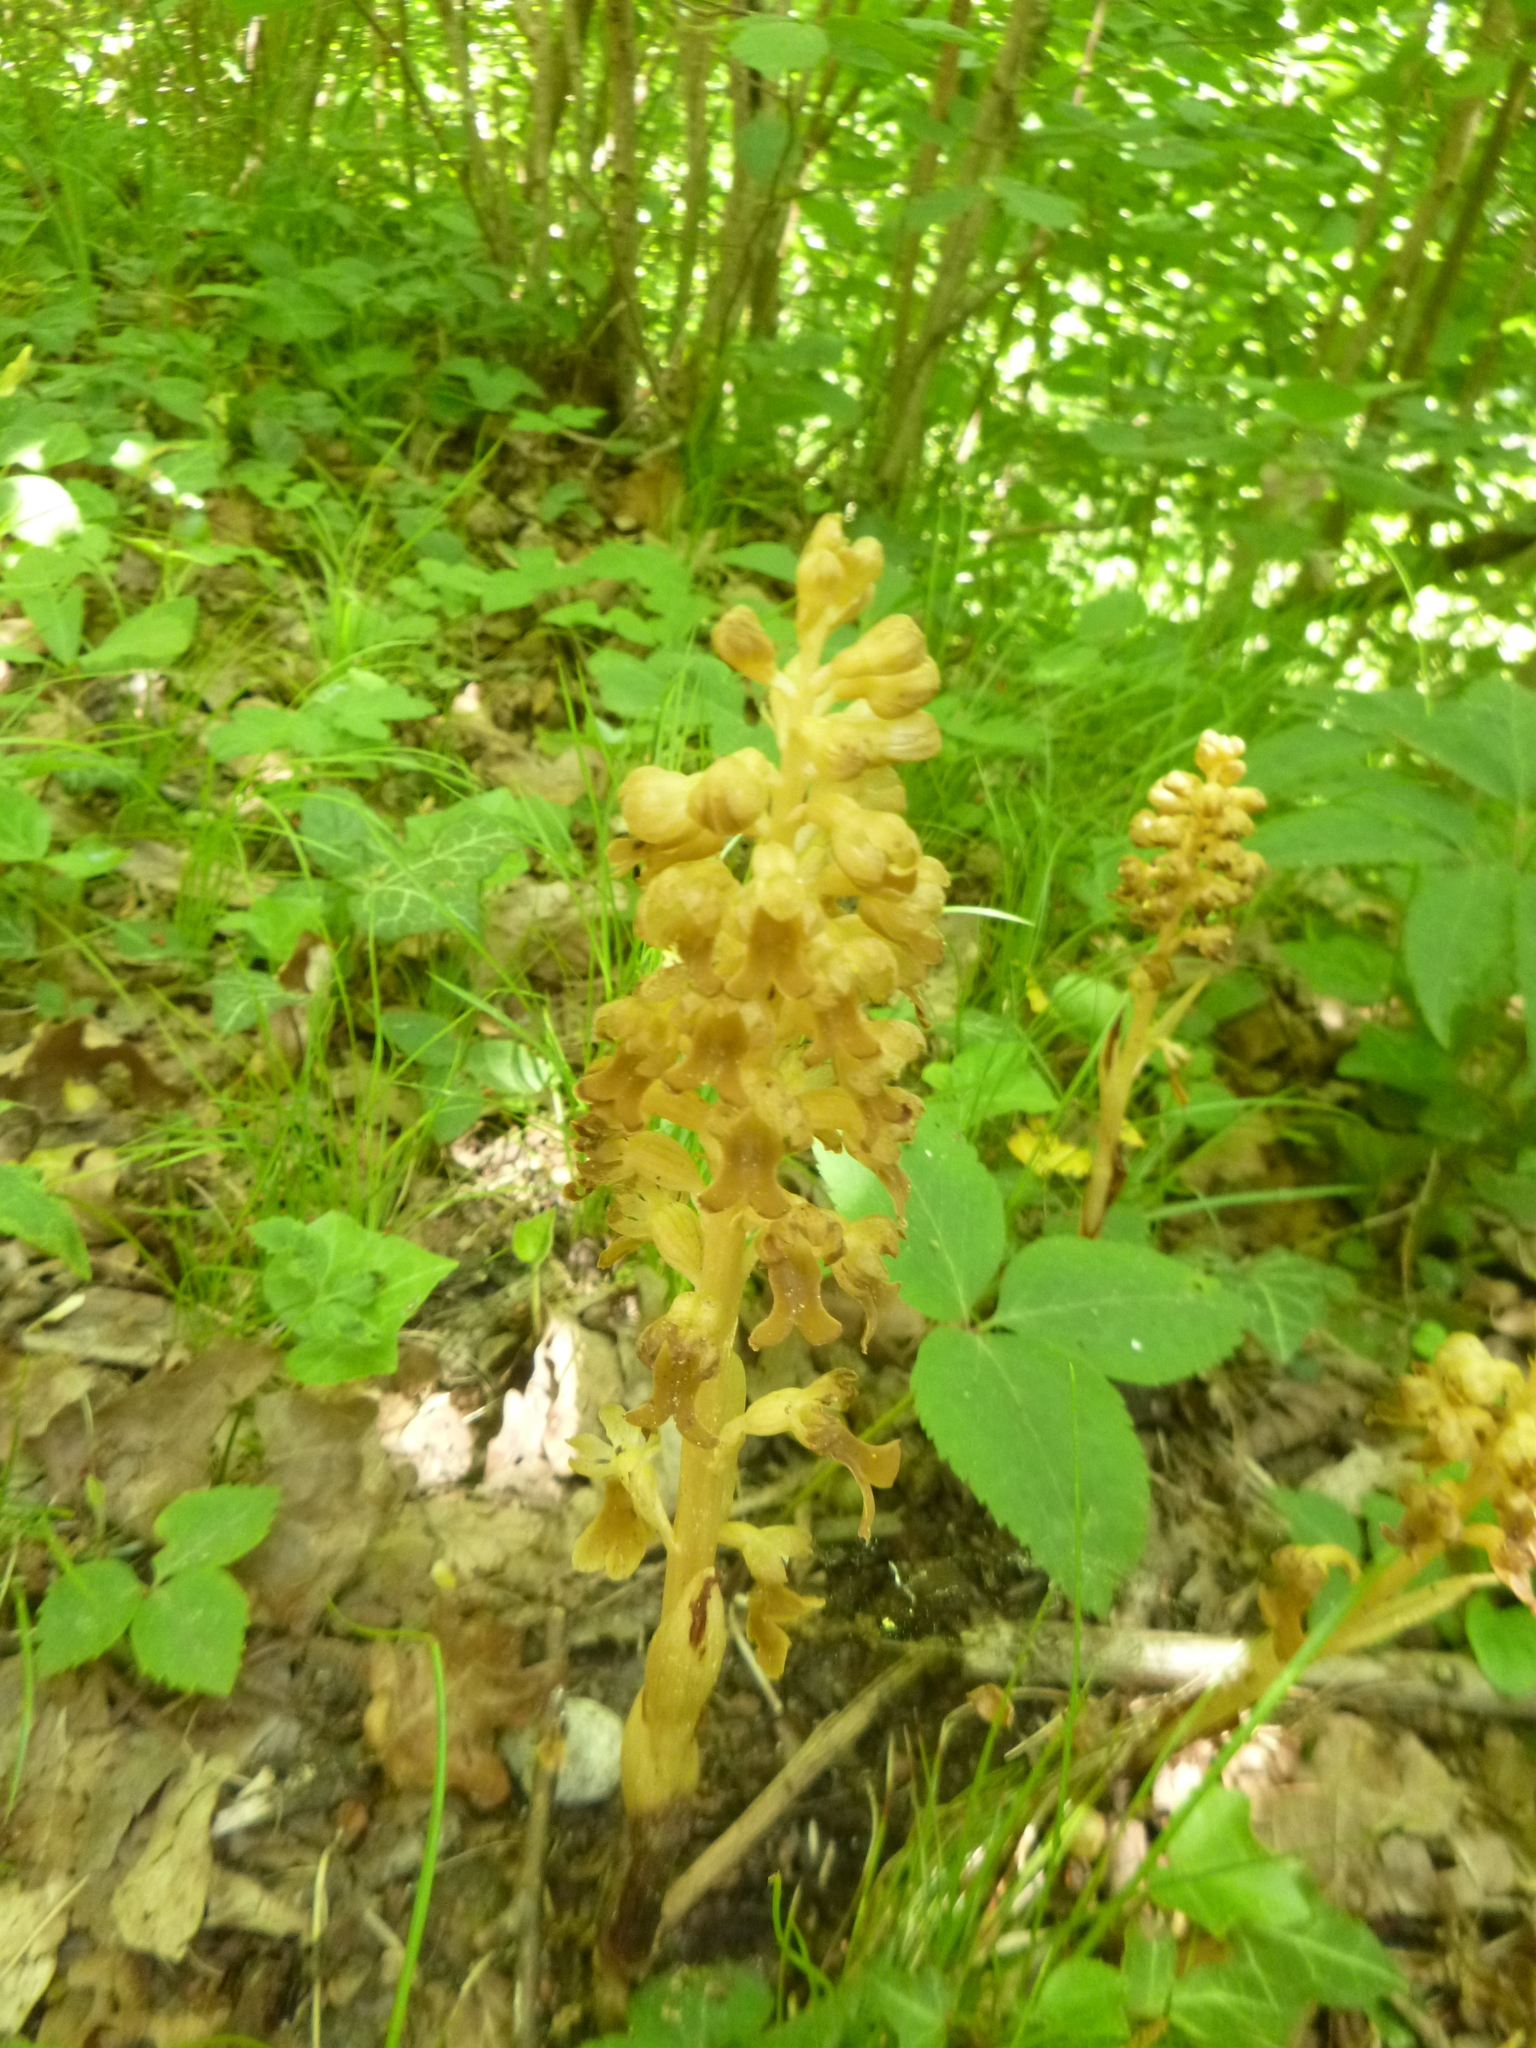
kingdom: Plantae
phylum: Tracheophyta
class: Liliopsida
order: Asparagales
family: Orchidaceae
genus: Neottia
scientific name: Neottia nidus-avis
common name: Bird's-nest orchid
